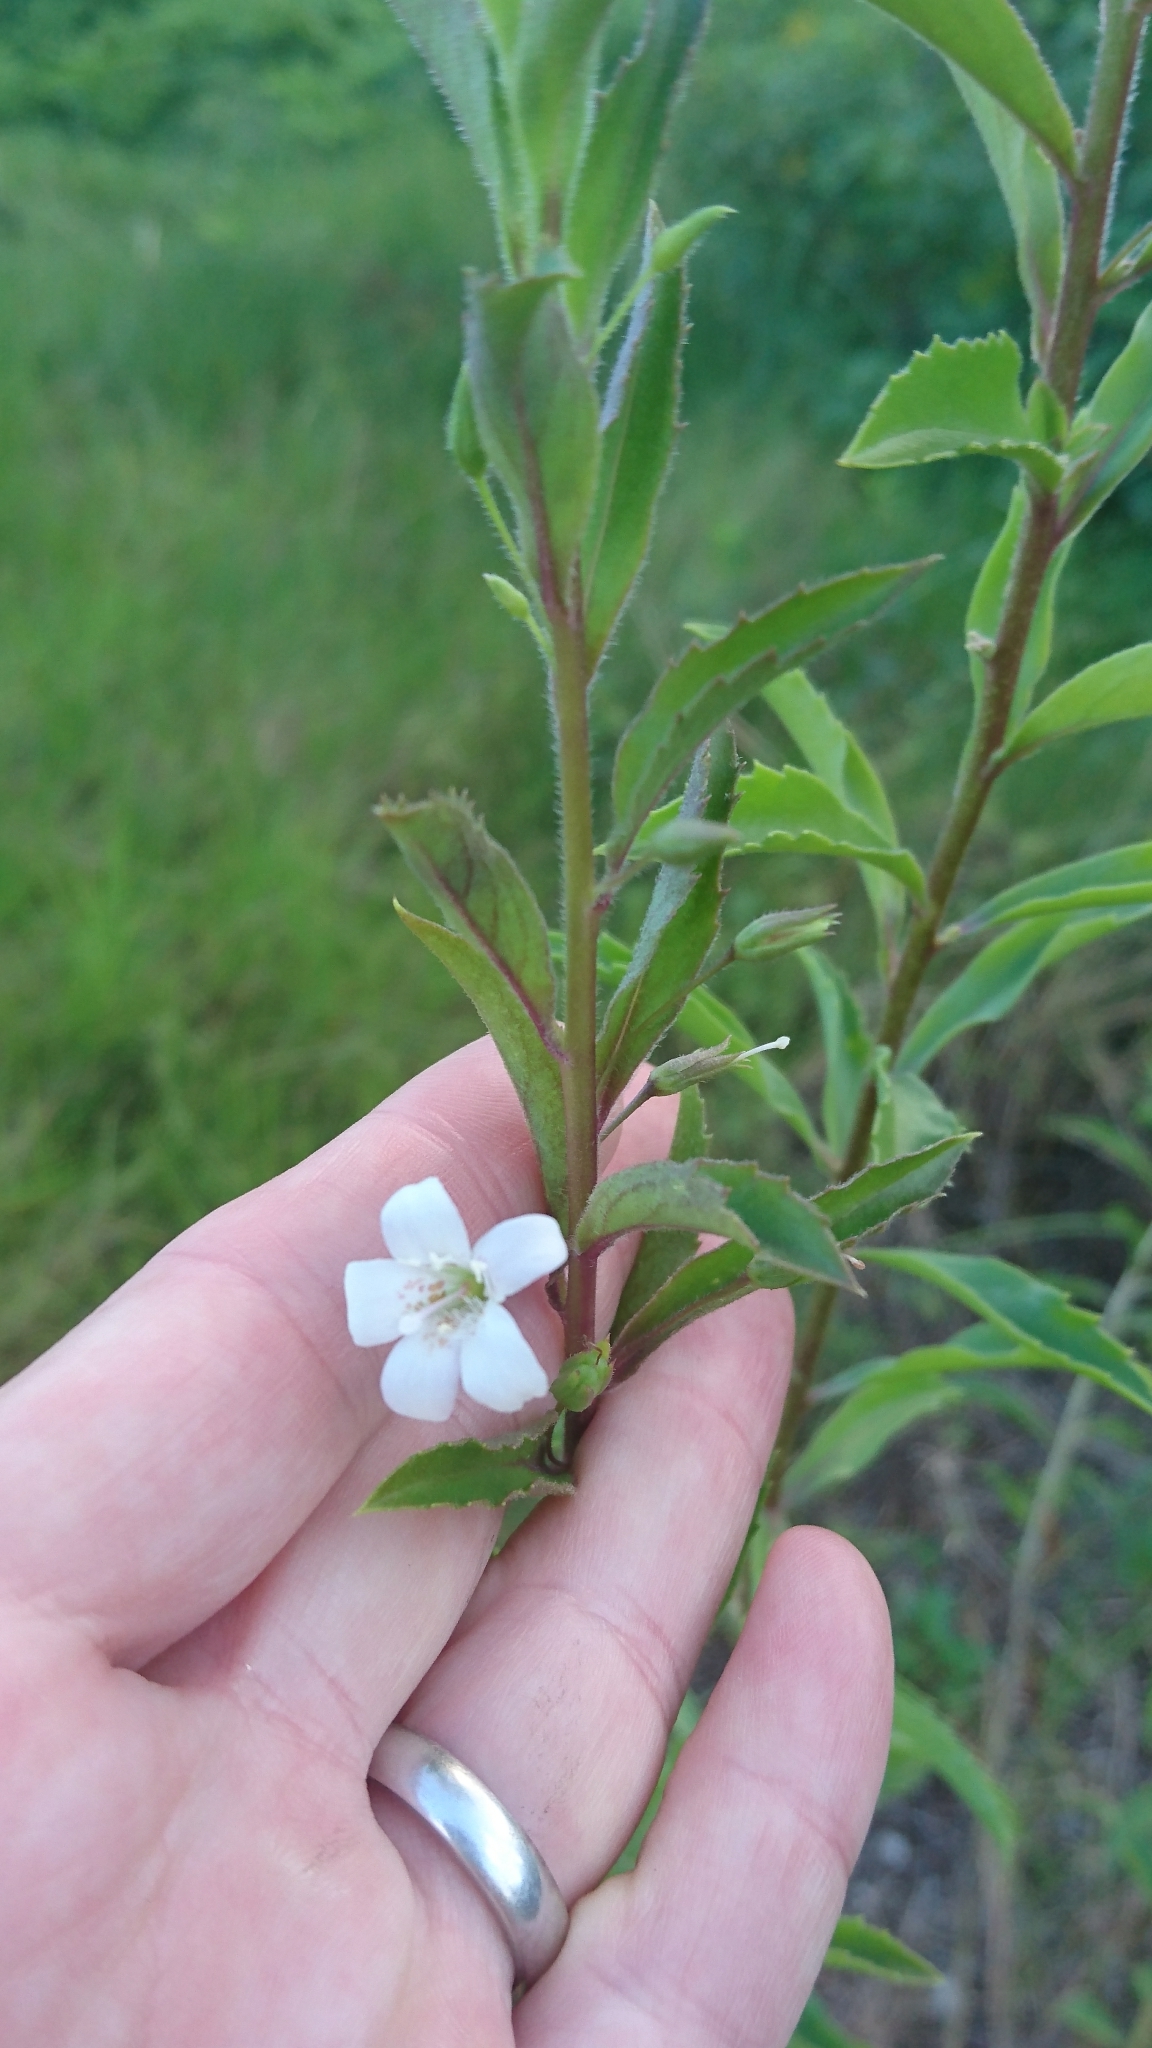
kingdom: Plantae
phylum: Tracheophyta
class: Magnoliopsida
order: Lamiales
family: Scrophulariaceae
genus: Capraria
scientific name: Capraria biflora
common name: Goatweed
